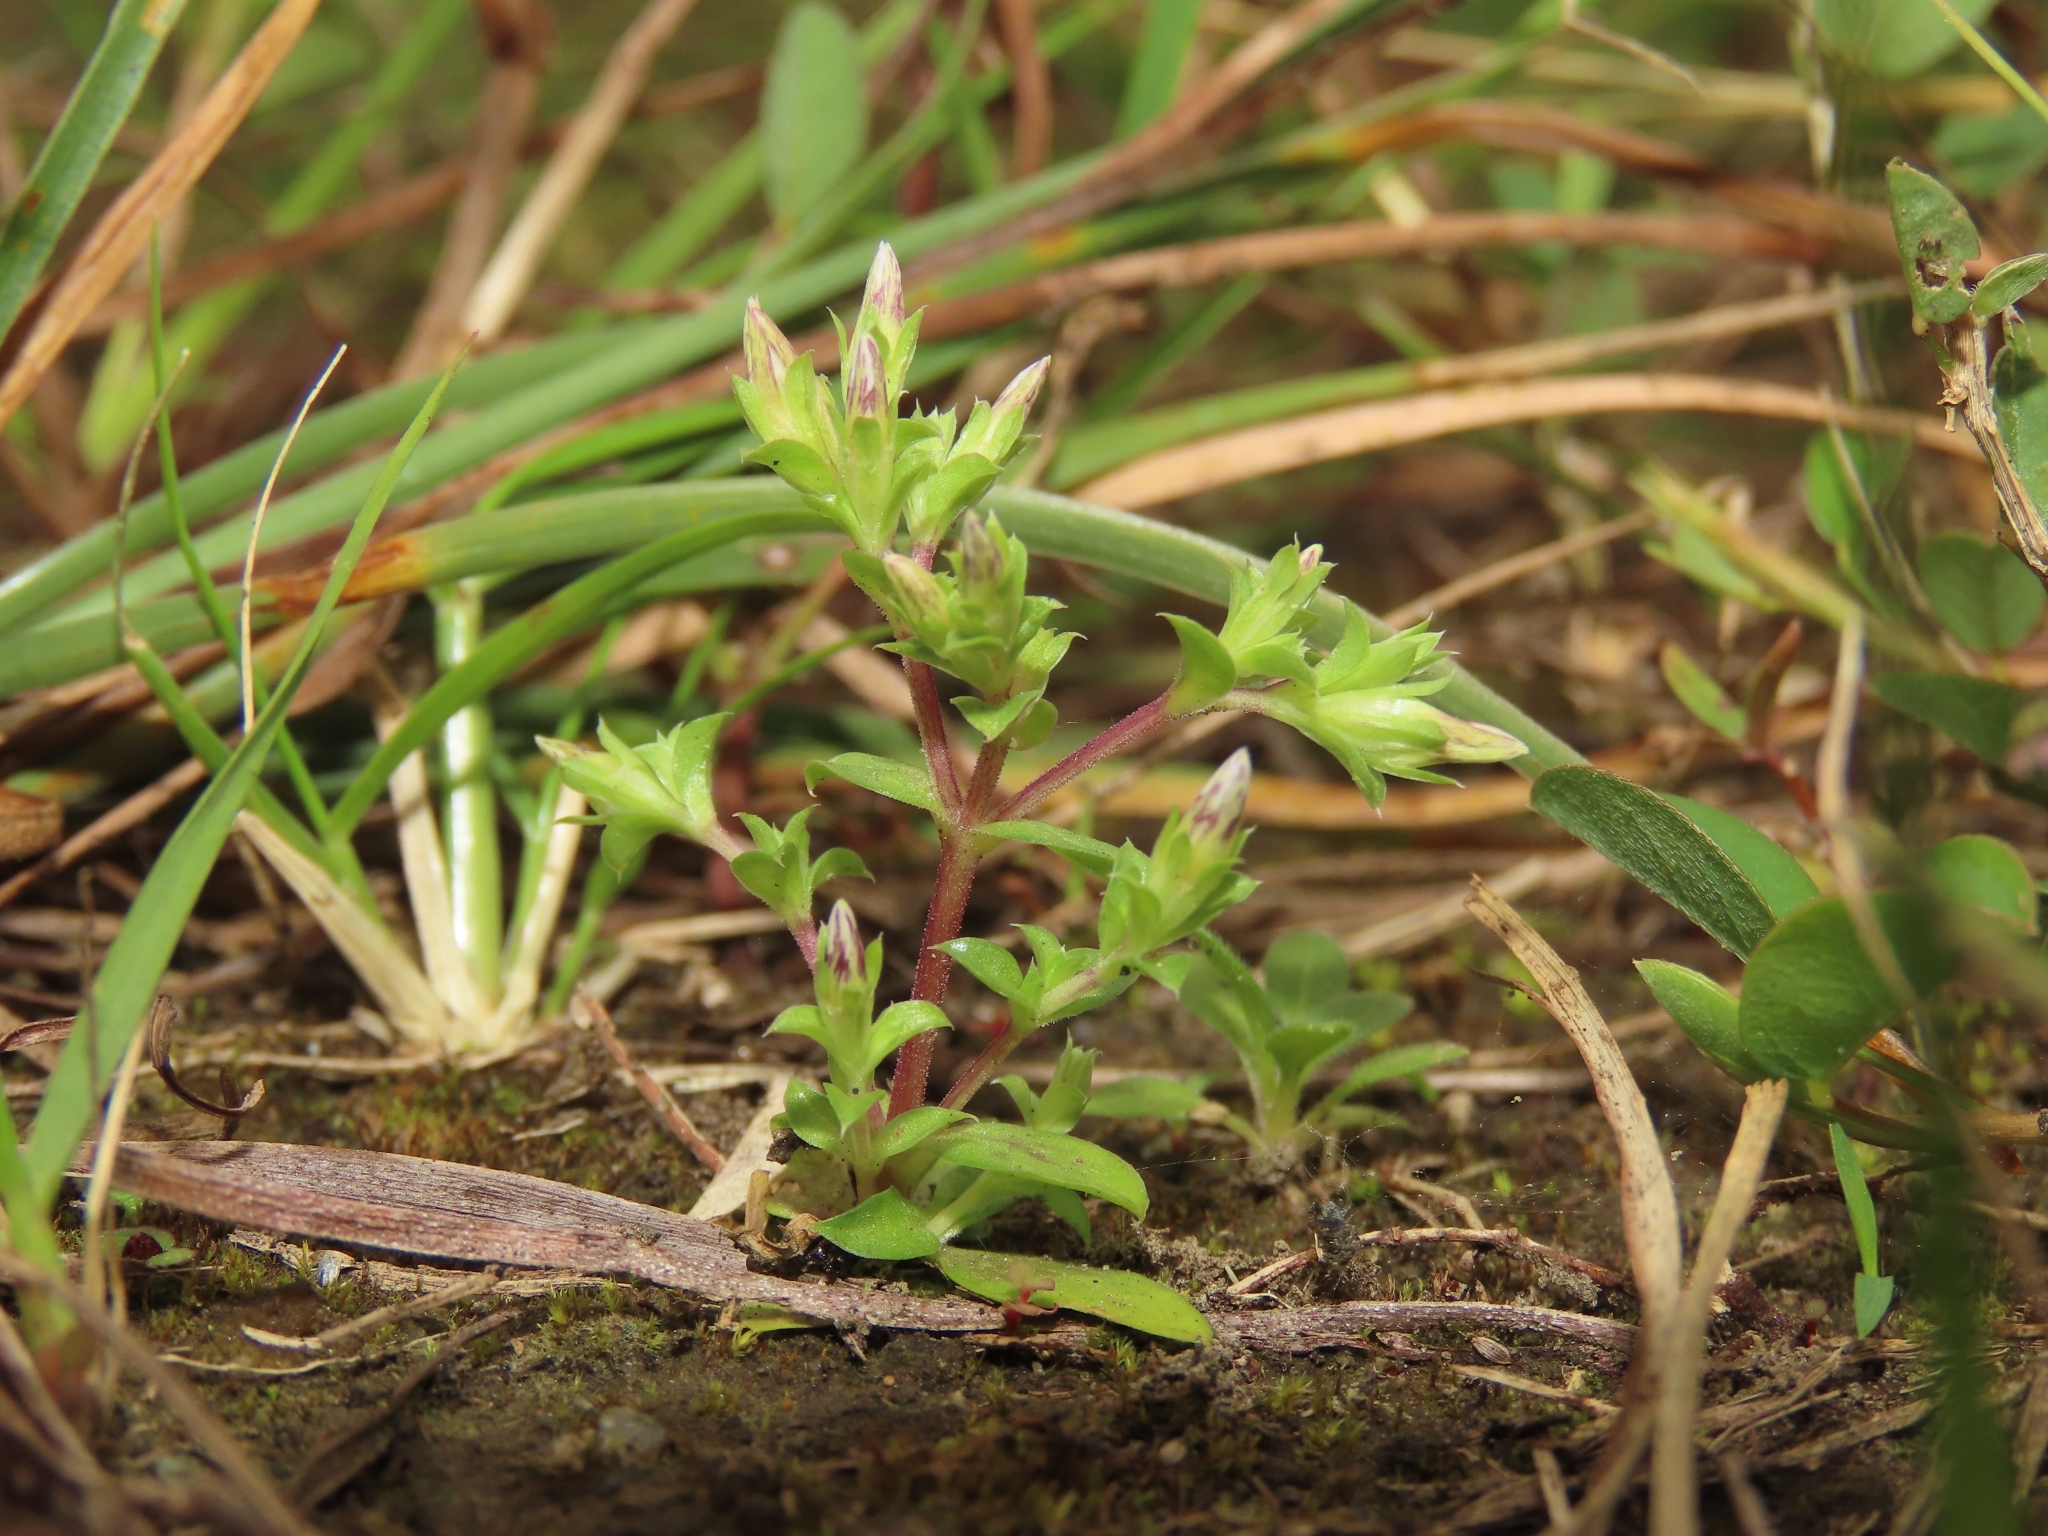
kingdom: Plantae
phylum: Tracheophyta
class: Magnoliopsida
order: Gentianales
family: Gentianaceae
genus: Gentiana
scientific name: Gentiana yokusai
